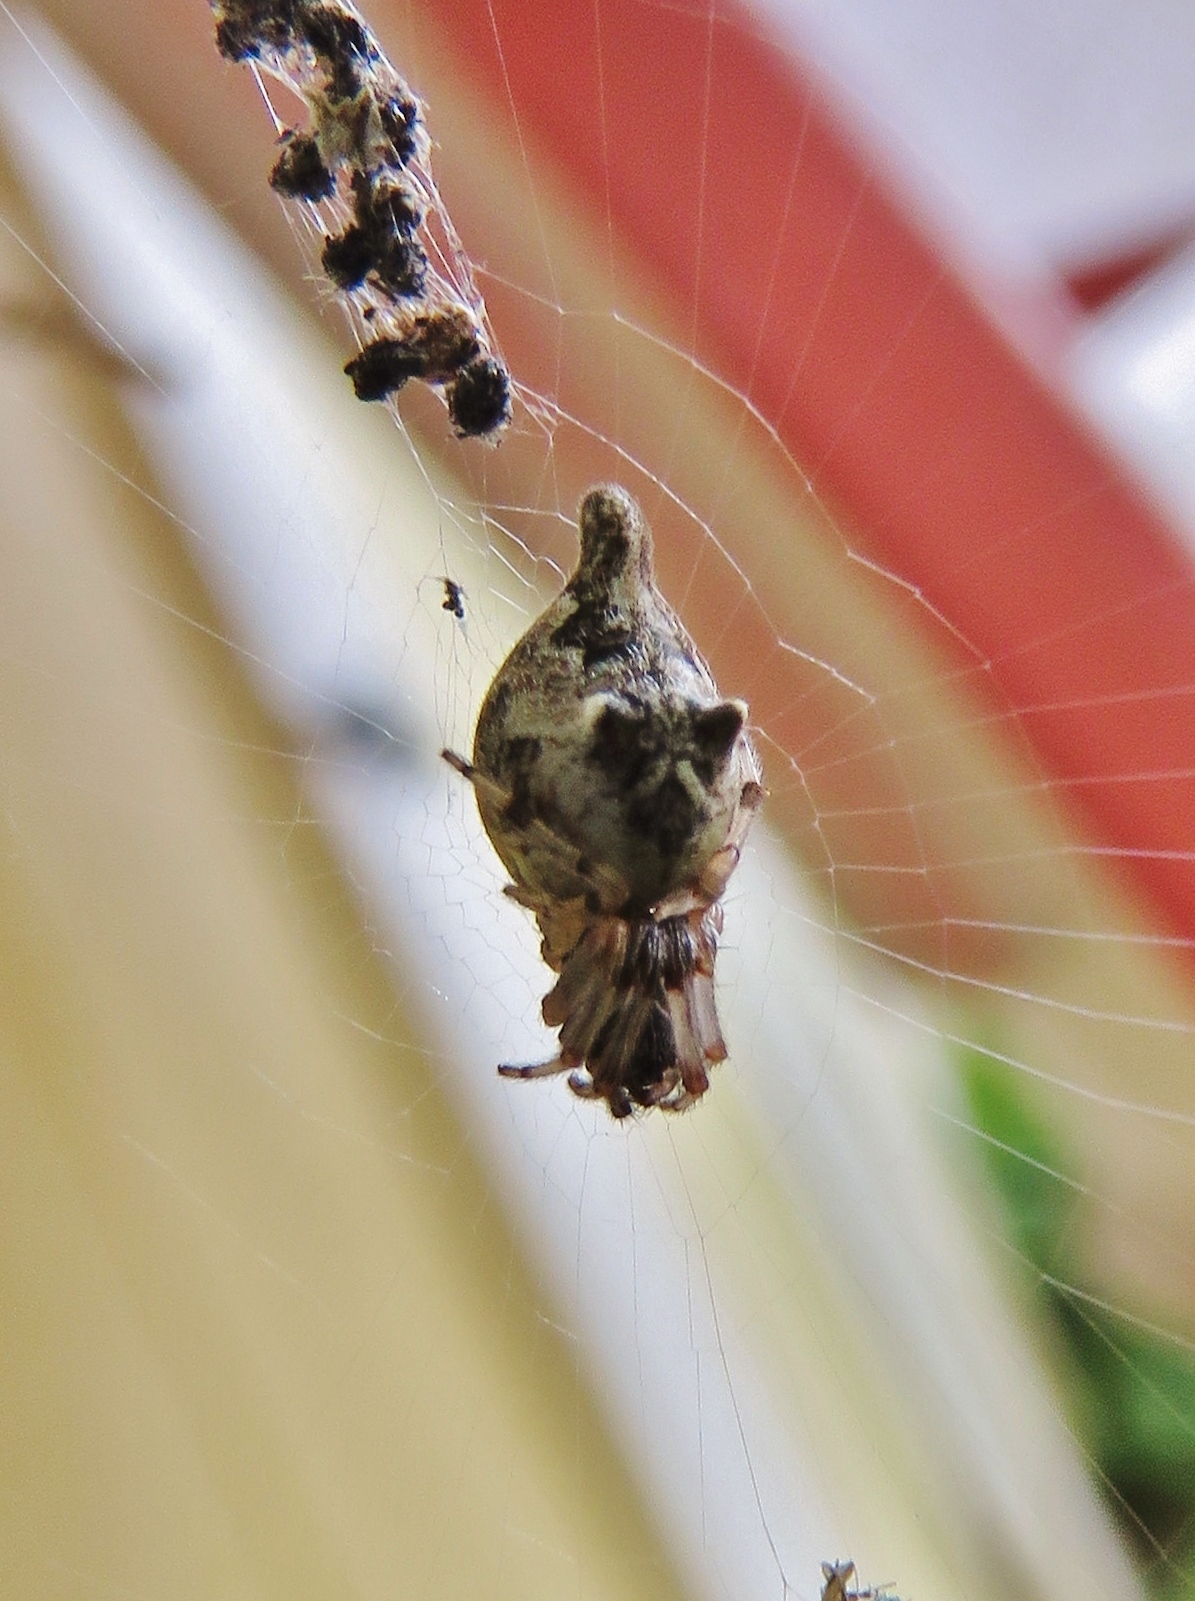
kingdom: Animalia
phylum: Arthropoda
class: Arachnida
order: Araneae
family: Araneidae
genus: Cyclosa
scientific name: Cyclosa turbinata
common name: Orb weavers
